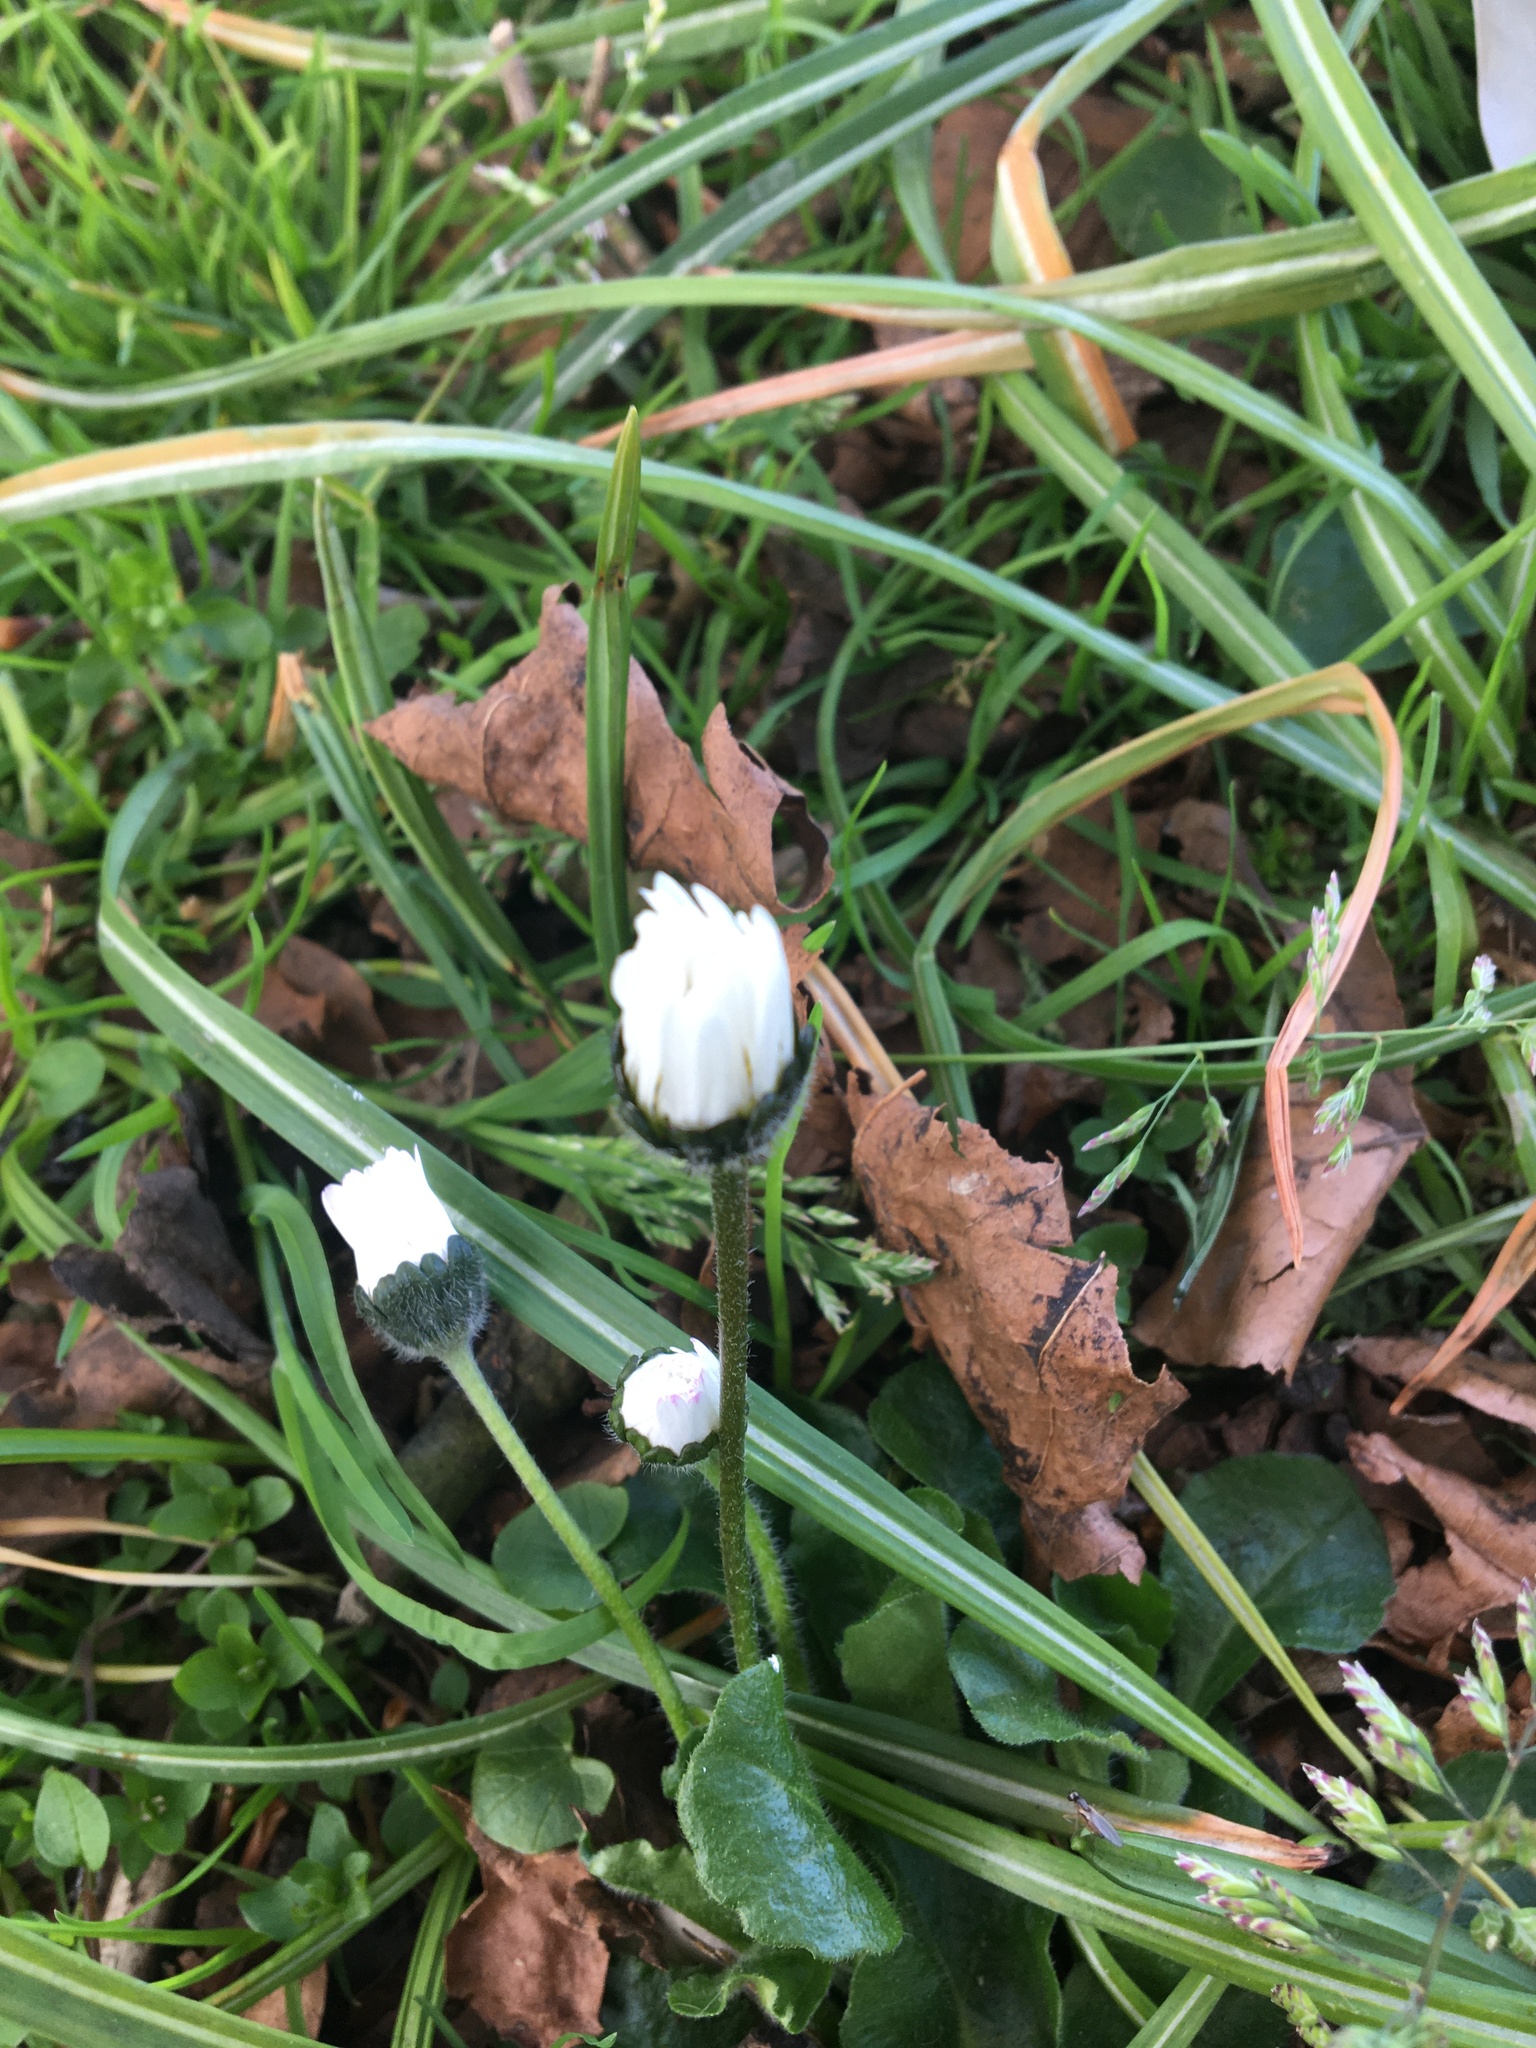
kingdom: Plantae
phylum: Tracheophyta
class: Magnoliopsida
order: Asterales
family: Asteraceae
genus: Bellis
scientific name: Bellis perennis
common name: Lawndaisy
